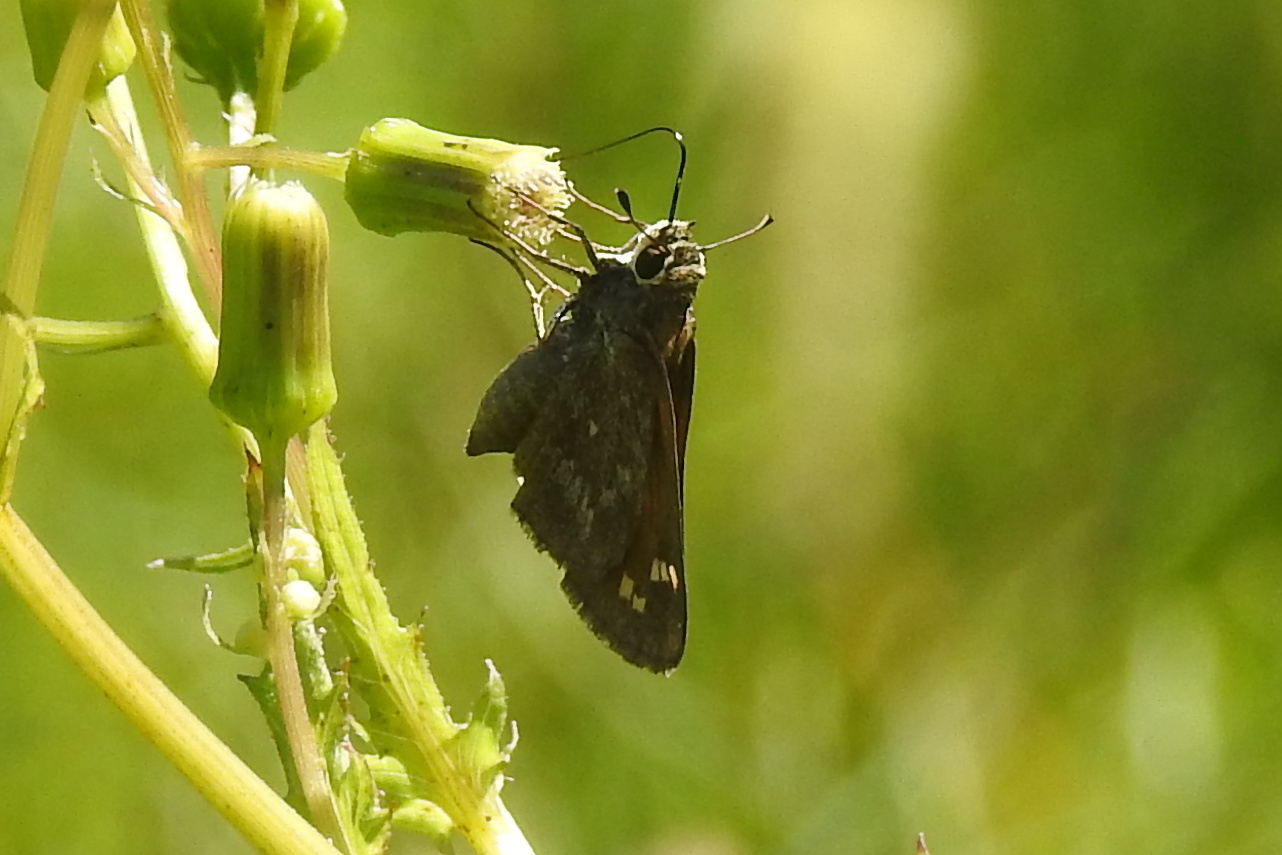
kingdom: Animalia
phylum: Arthropoda
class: Insecta
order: Lepidoptera
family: Hesperiidae
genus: Atalopedes
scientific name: Atalopedes
